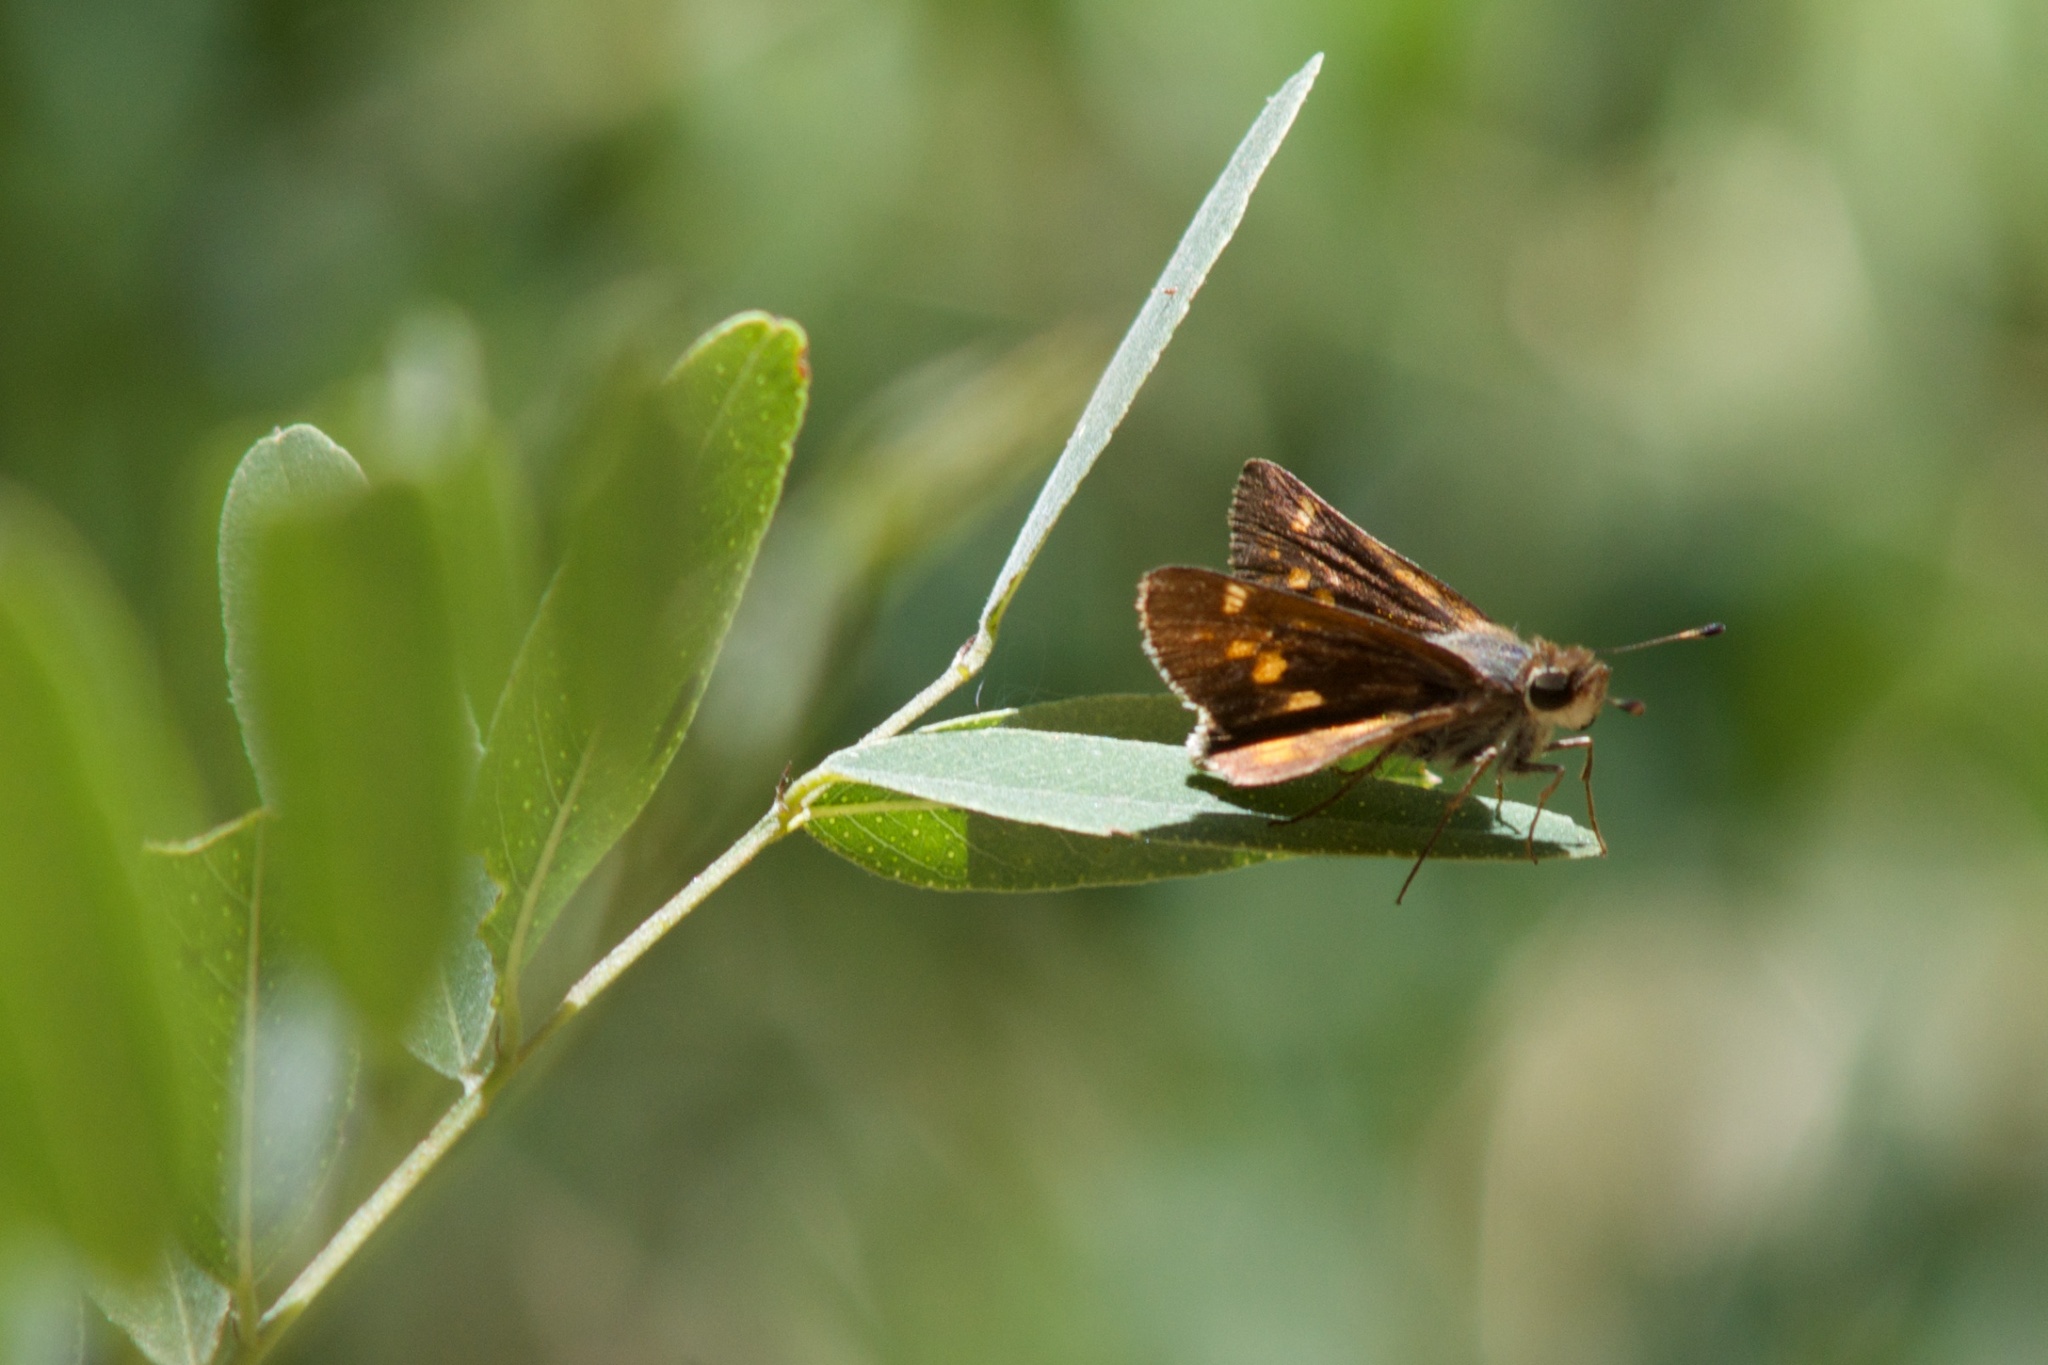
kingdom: Animalia
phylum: Arthropoda
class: Insecta
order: Lepidoptera
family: Hesperiidae
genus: Lon
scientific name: Lon melane
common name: Umber skipper
